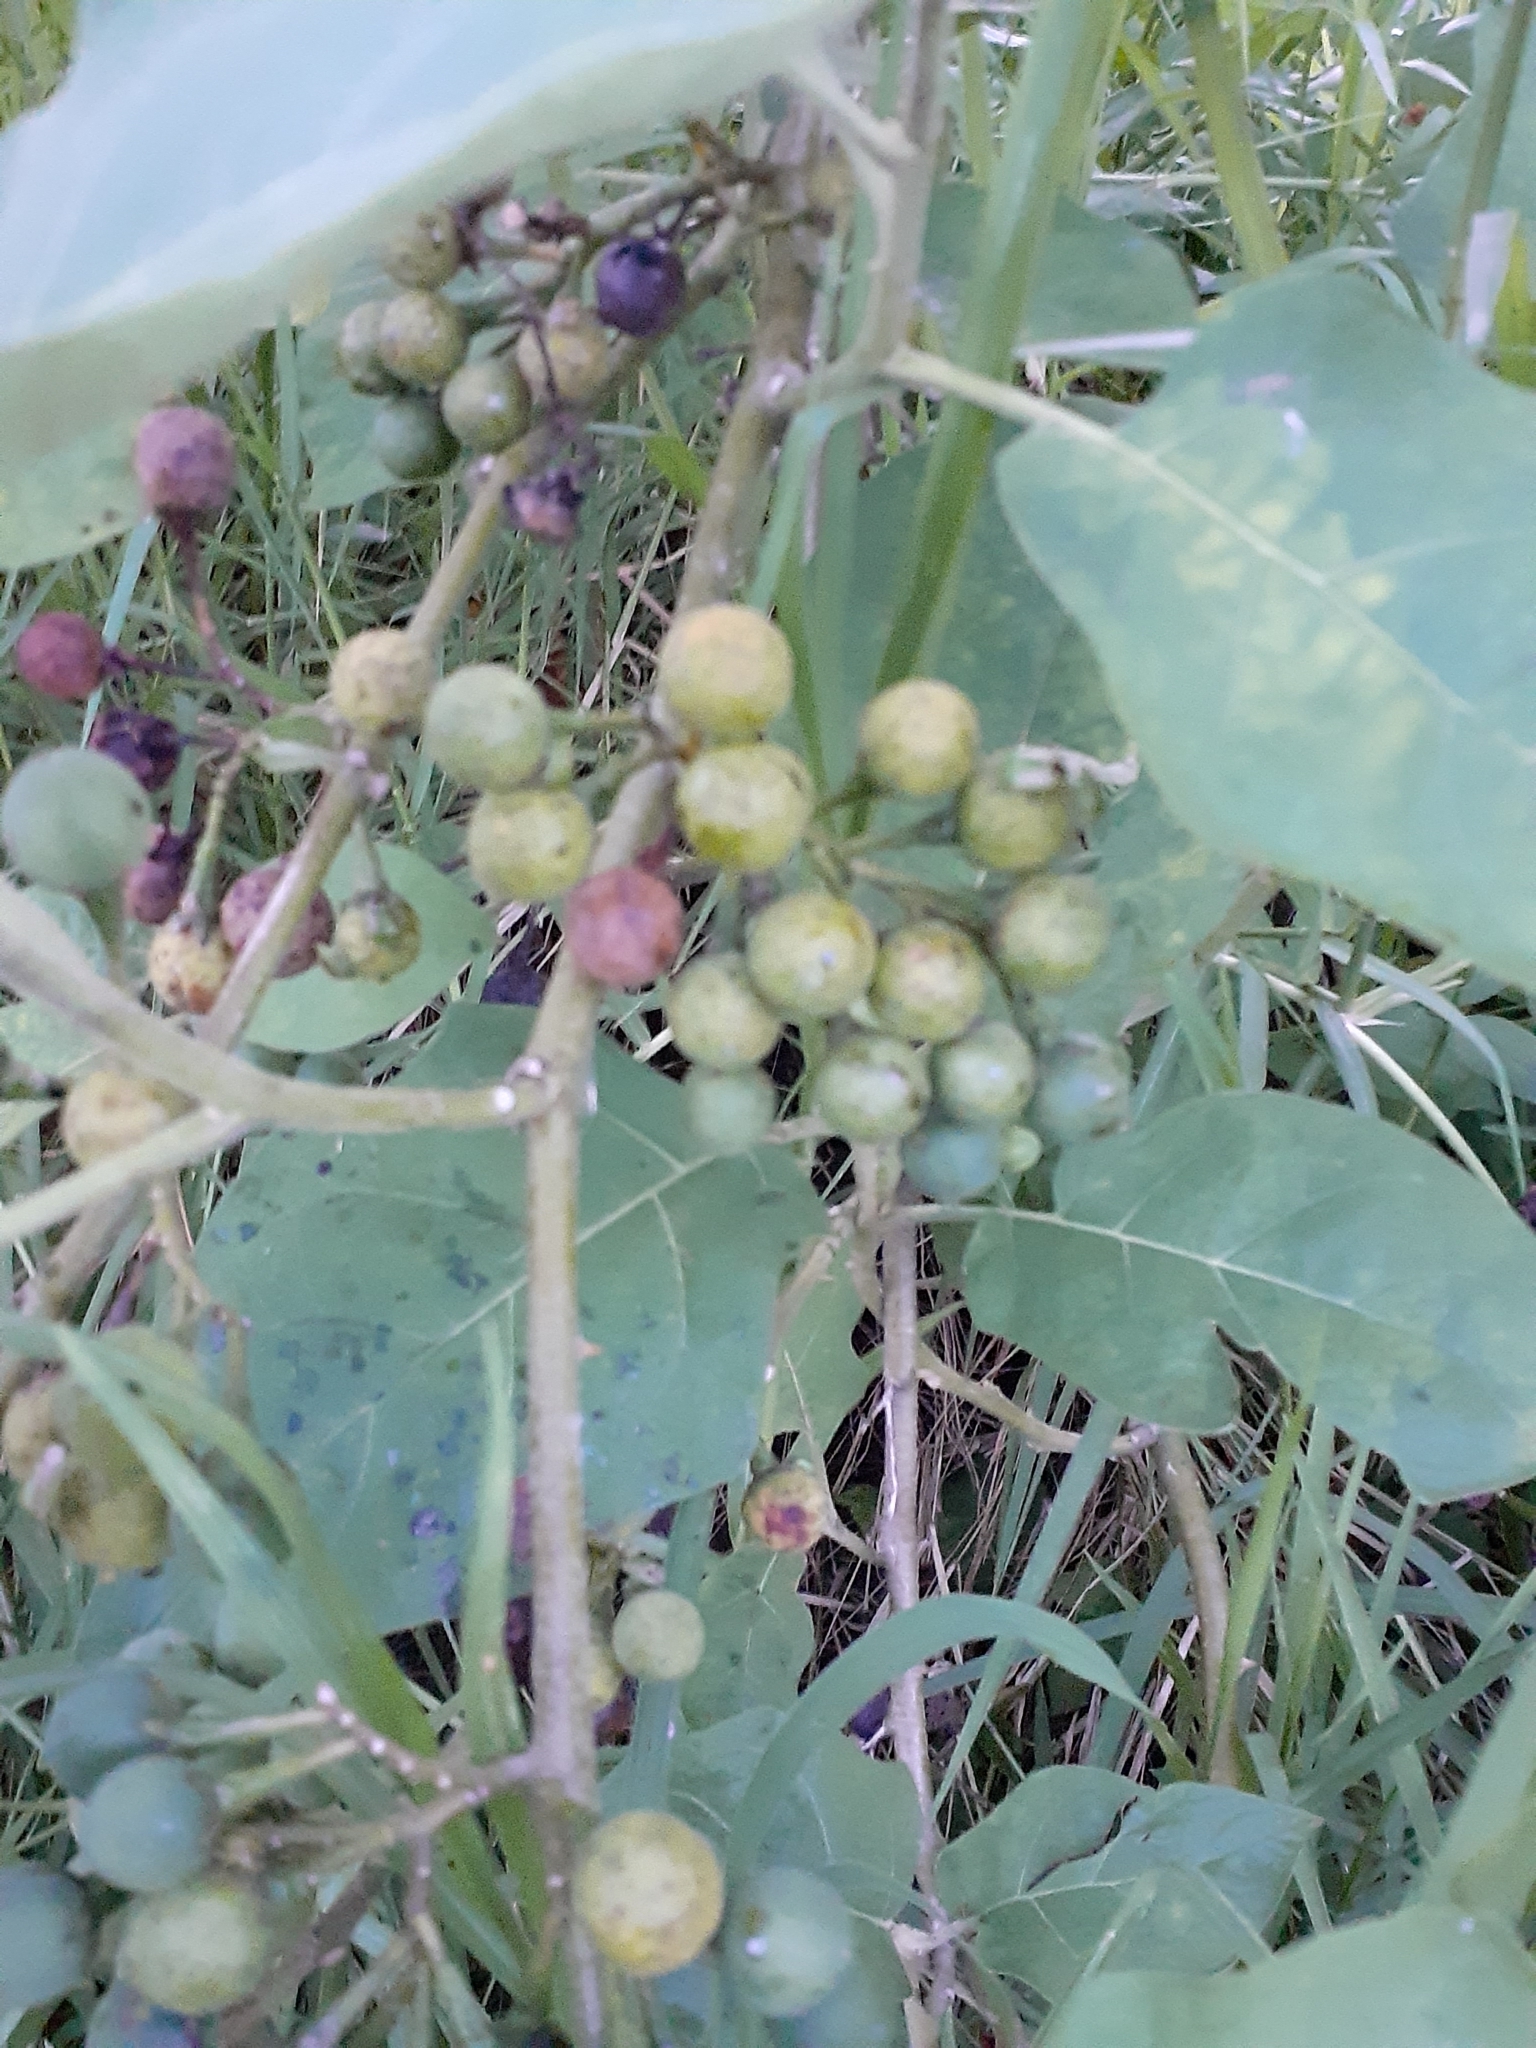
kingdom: Plantae
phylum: Tracheophyta
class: Magnoliopsida
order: Solanales
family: Solanaceae
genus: Solanum
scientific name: Solanum torvum
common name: Turkey berry
